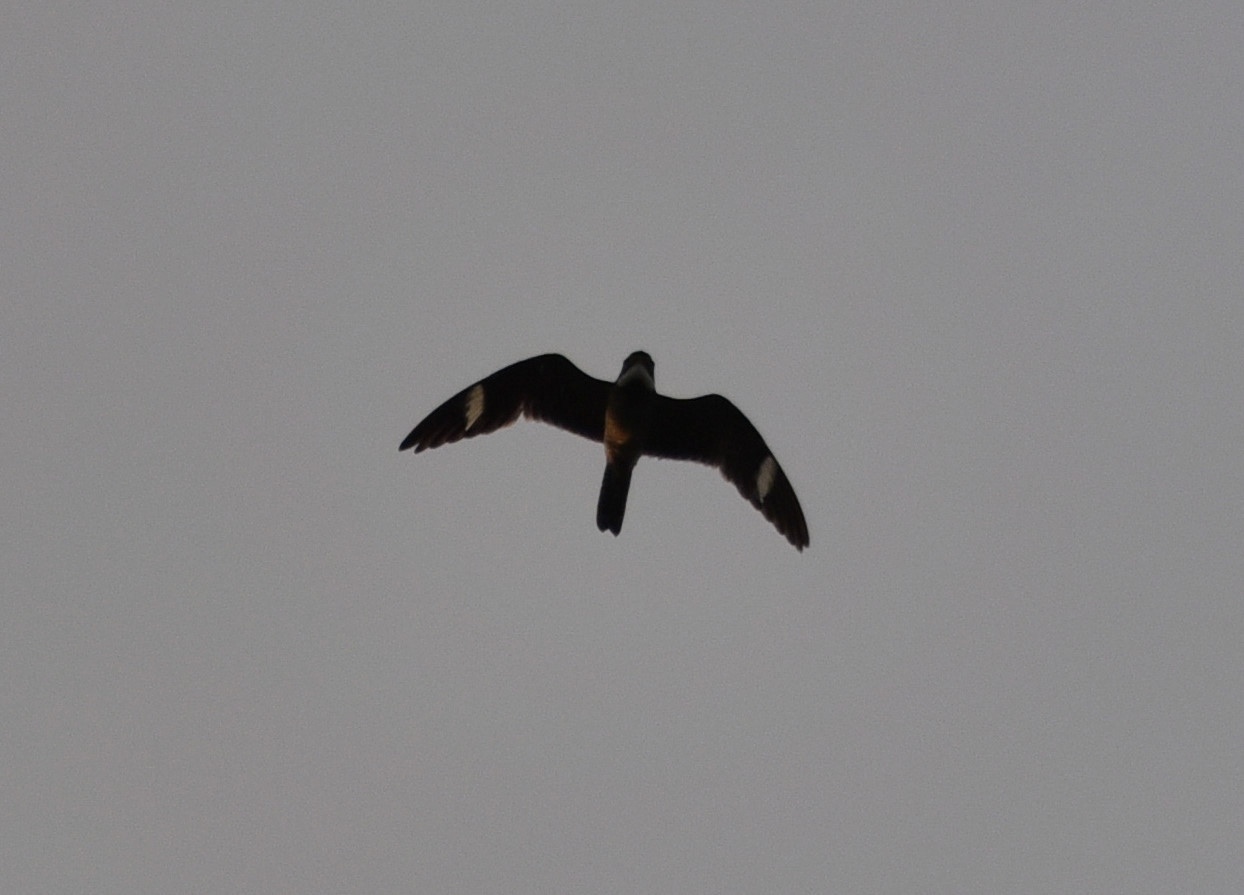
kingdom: Animalia
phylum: Chordata
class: Aves
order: Caprimulgiformes
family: Caprimulgidae
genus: Chordeiles
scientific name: Chordeiles minor
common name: Common nighthawk
